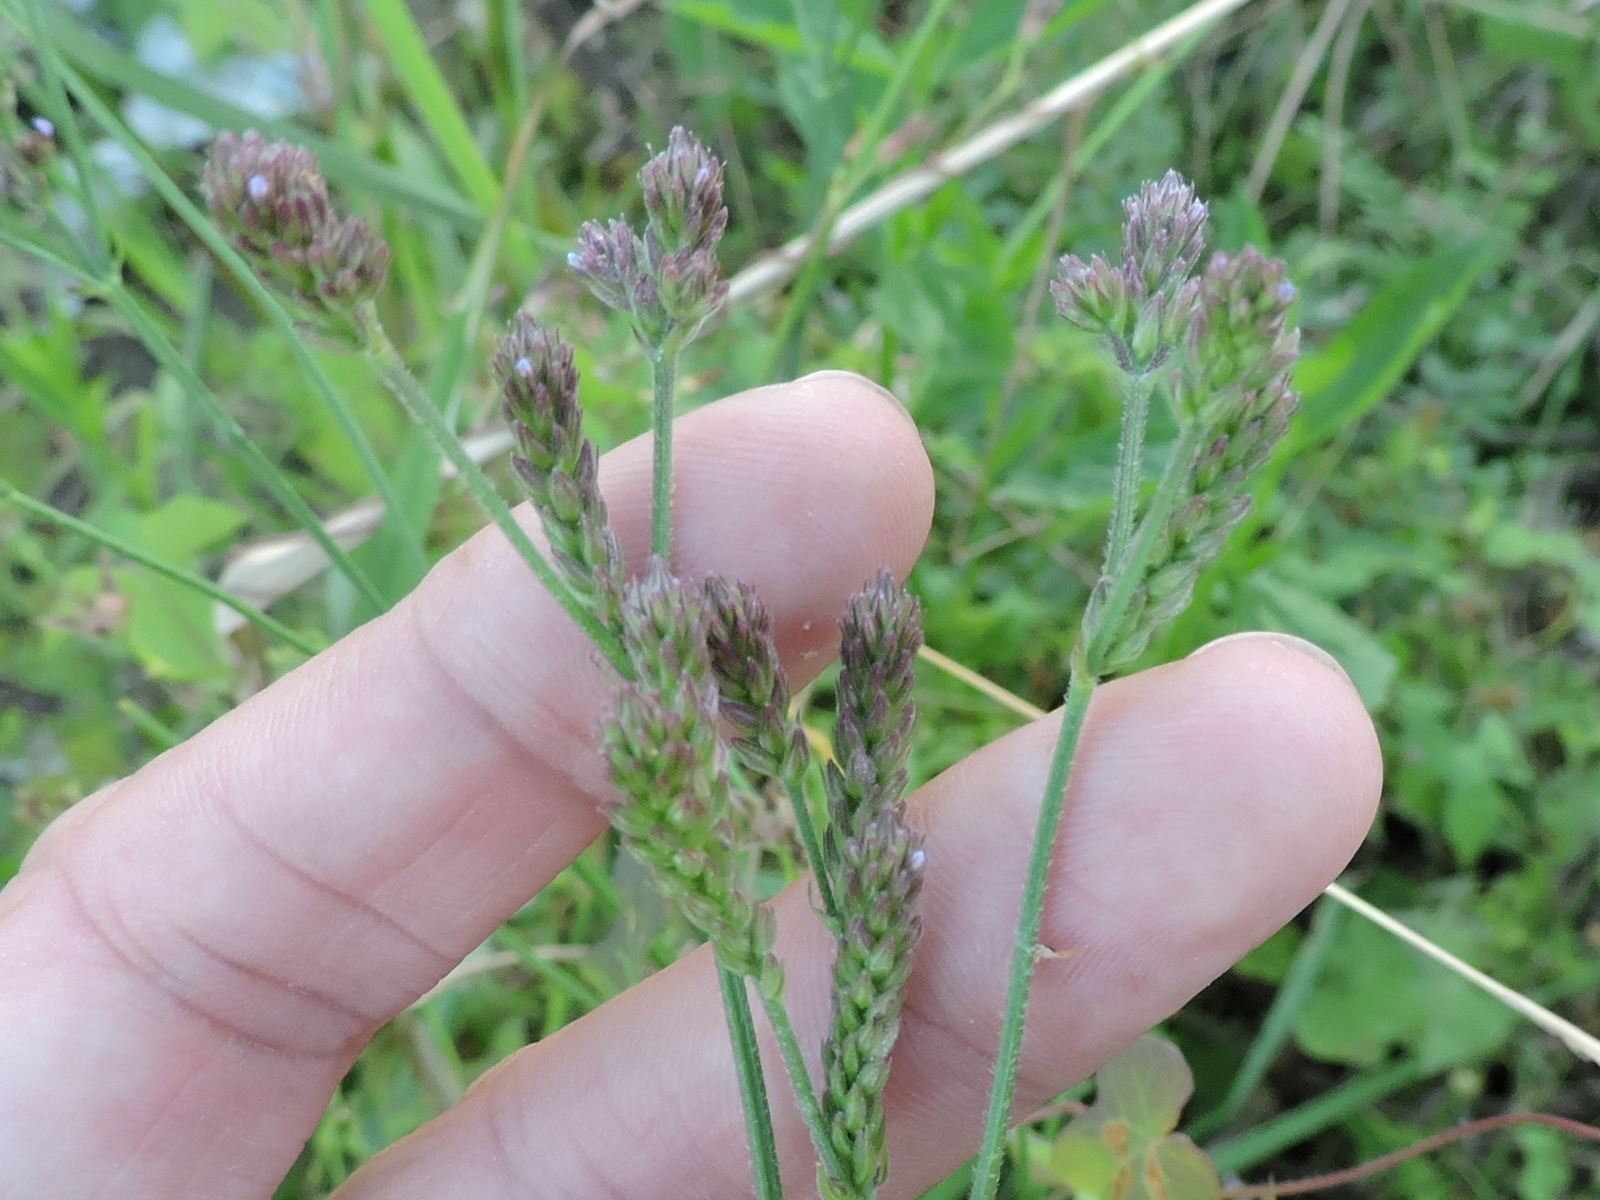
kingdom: Plantae
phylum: Tracheophyta
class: Magnoliopsida
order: Lamiales
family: Verbenaceae
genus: Verbena
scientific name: Verbena brasiliensis
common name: Brazilian vervain
